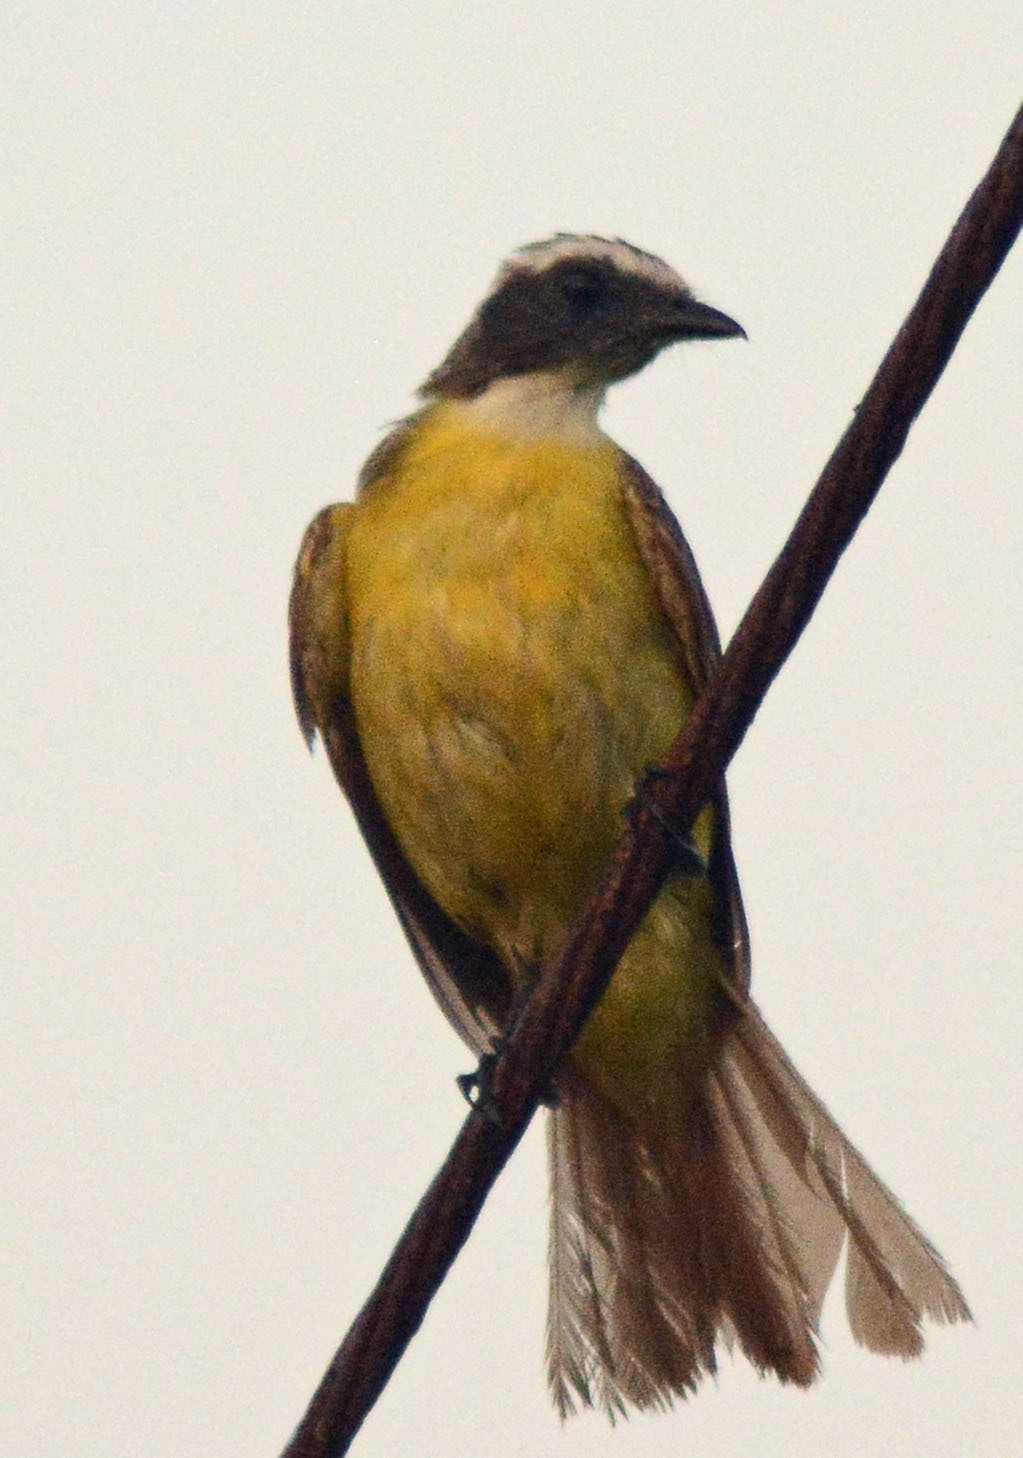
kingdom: Animalia
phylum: Chordata
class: Aves
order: Passeriformes
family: Tyrannidae
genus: Myiozetetes
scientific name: Myiozetetes similis
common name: Social flycatcher
